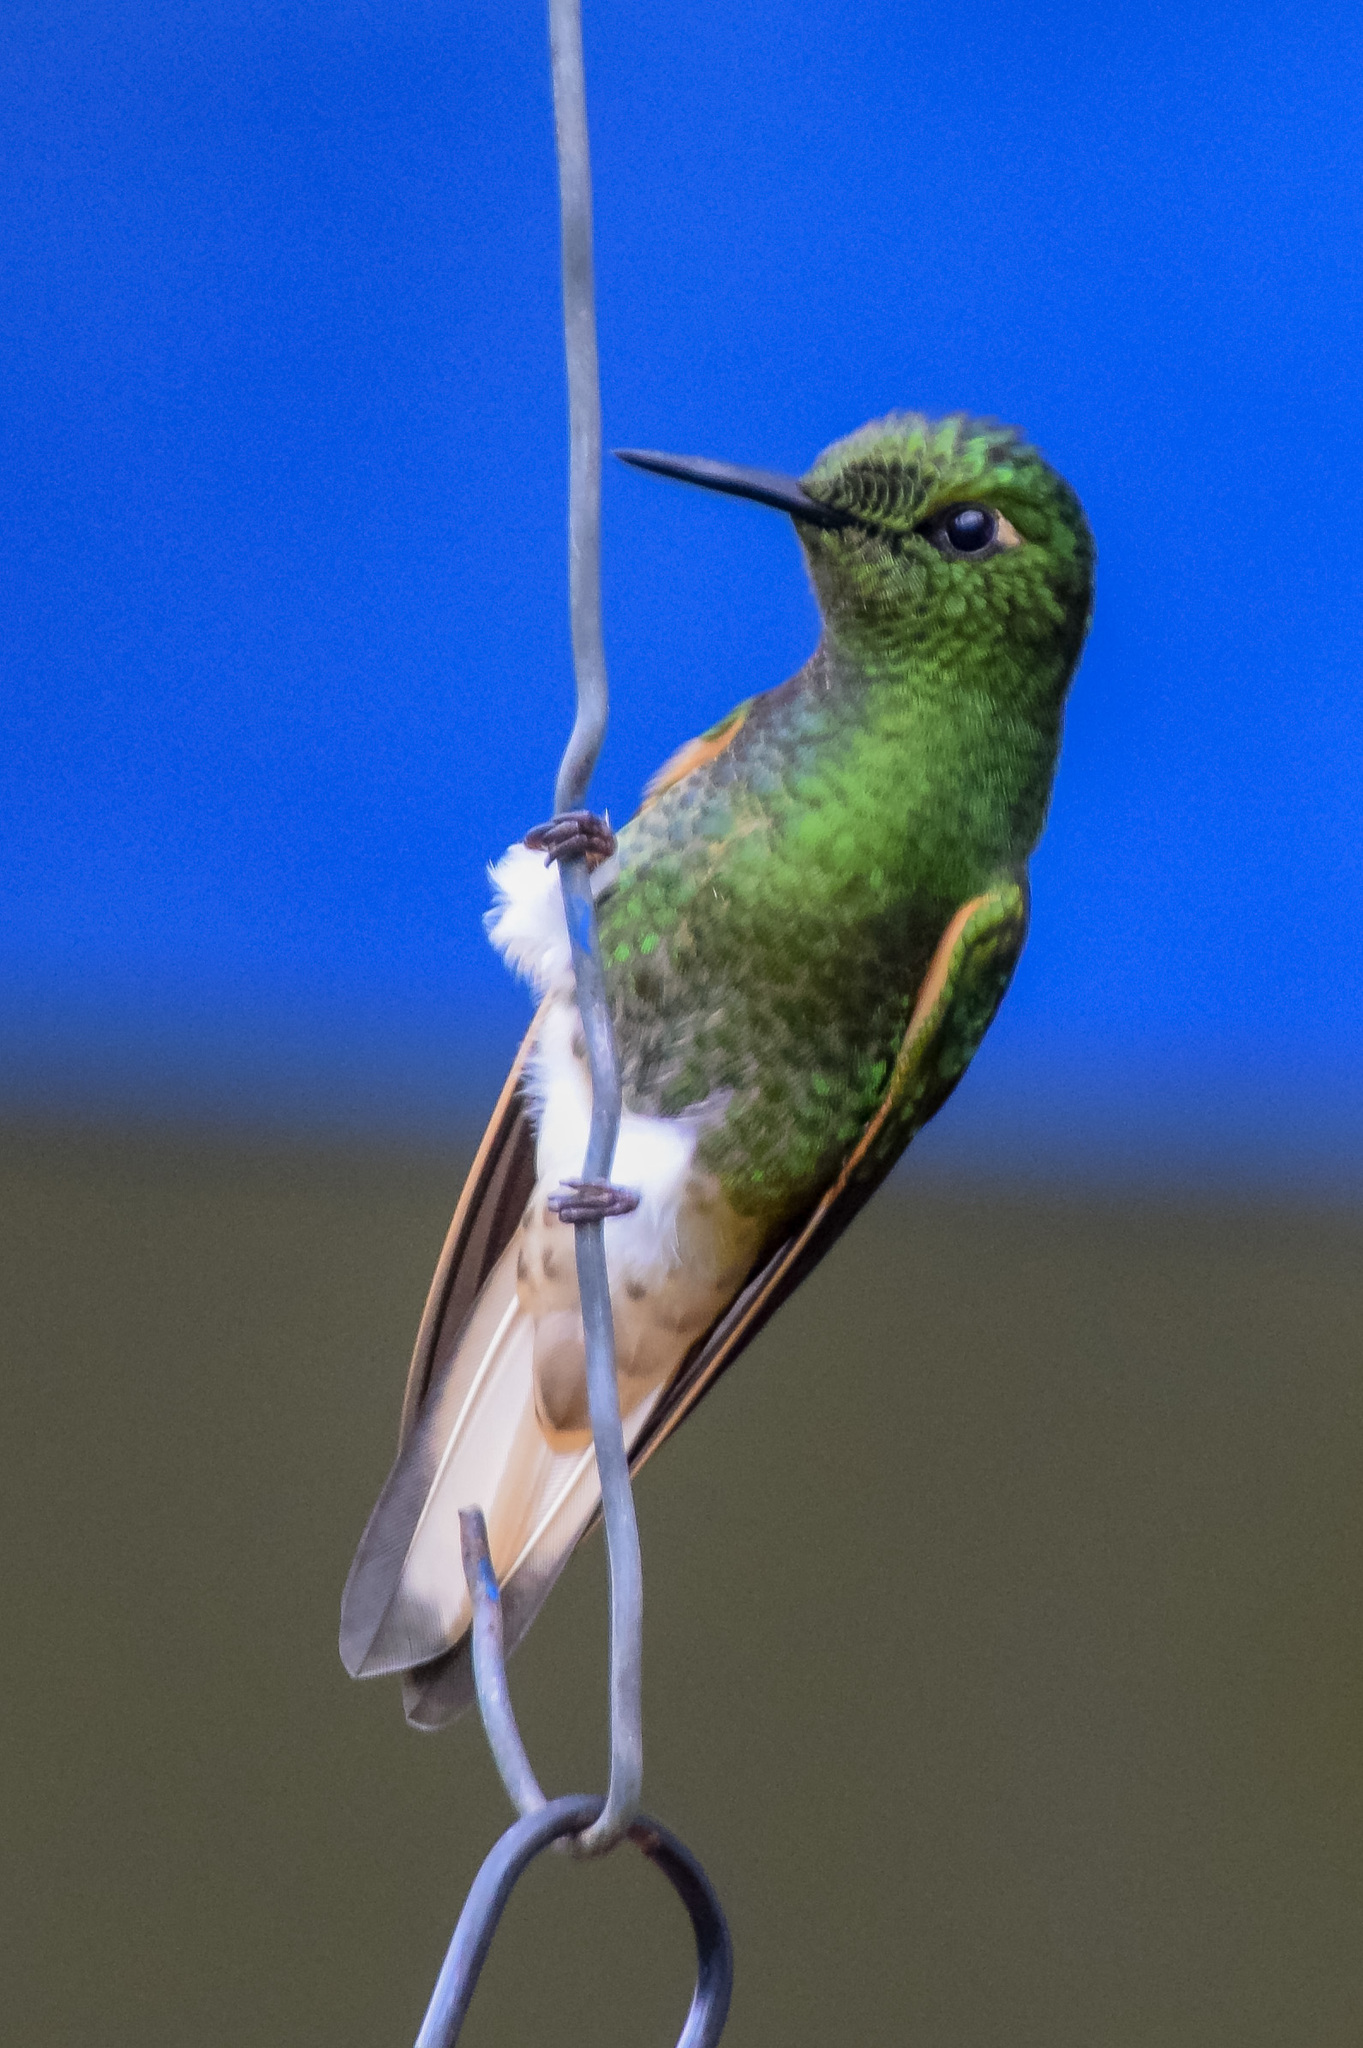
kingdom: Animalia
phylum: Chordata
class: Aves
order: Apodiformes
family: Trochilidae
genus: Boissonneaua
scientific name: Boissonneaua flavescens
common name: Buff-tailed coronet
